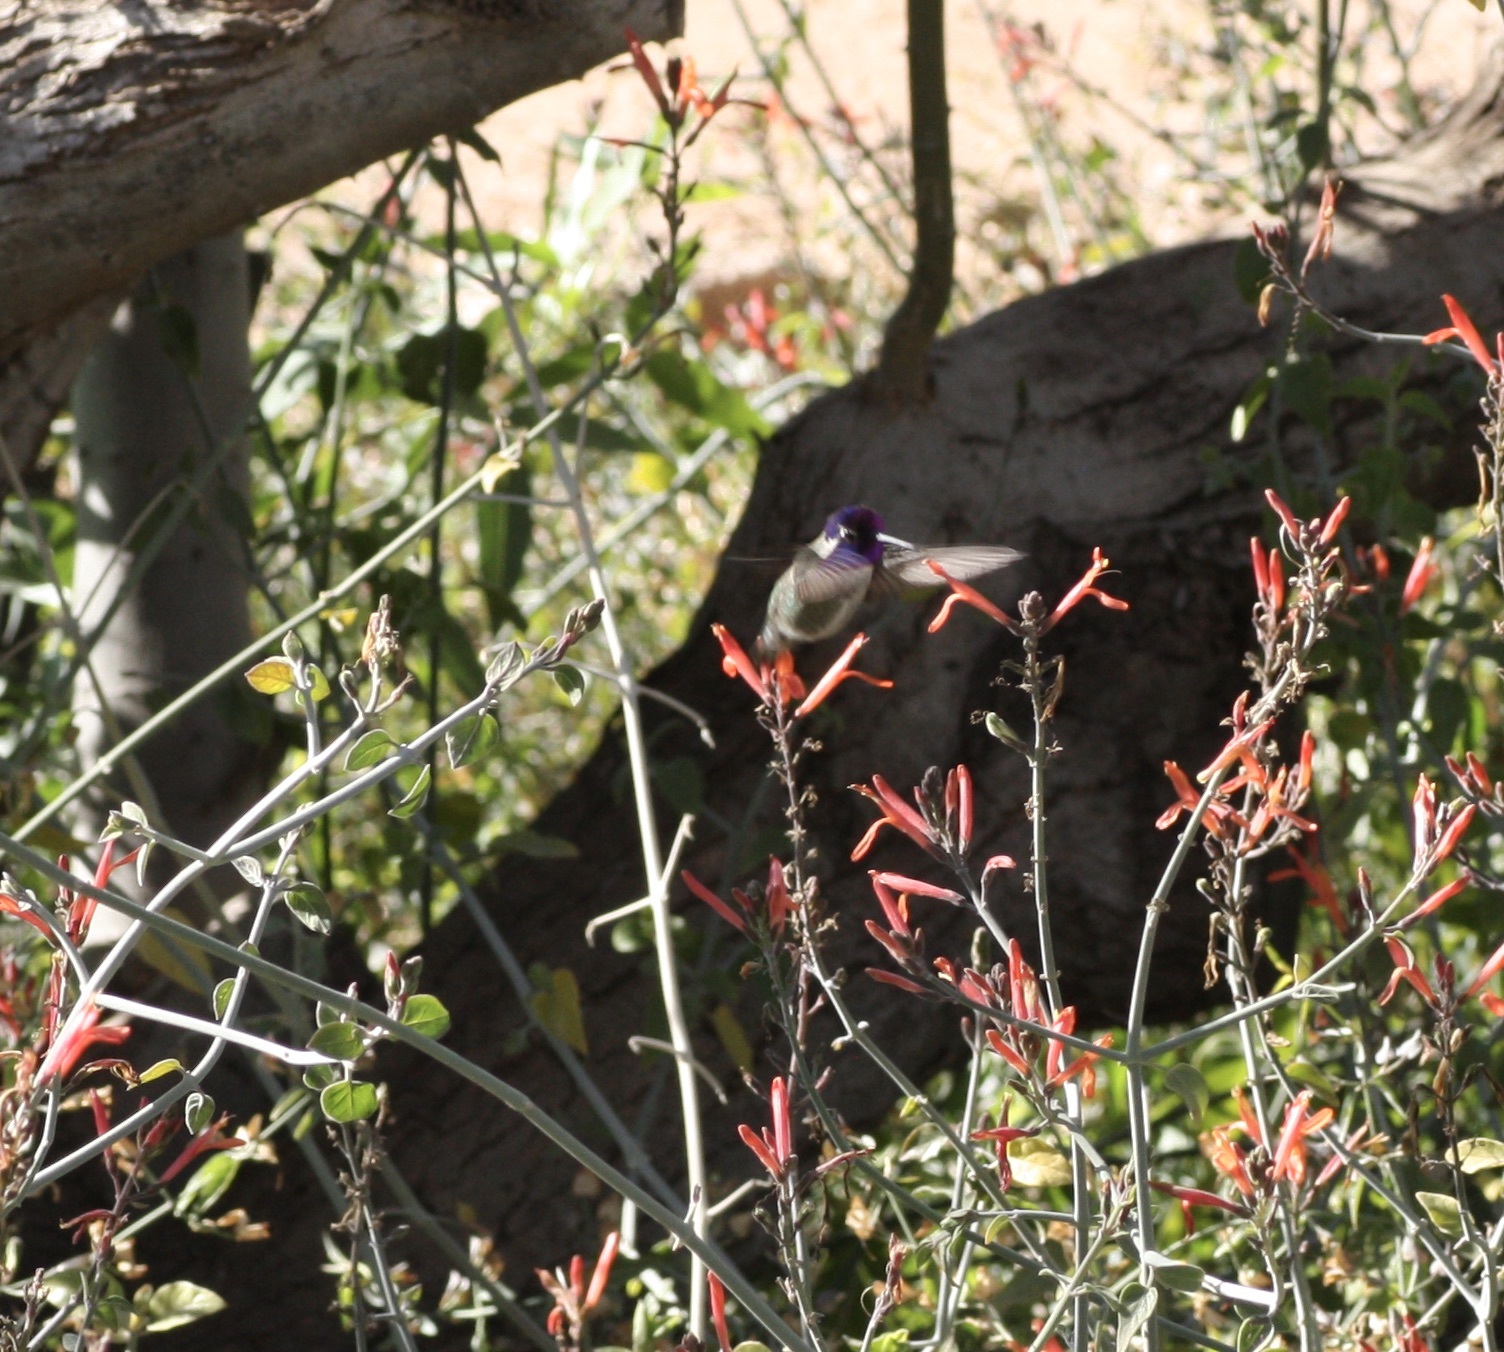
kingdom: Animalia
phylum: Chordata
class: Aves
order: Apodiformes
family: Trochilidae
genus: Calypte
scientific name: Calypte costae
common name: Costa's hummingbird
